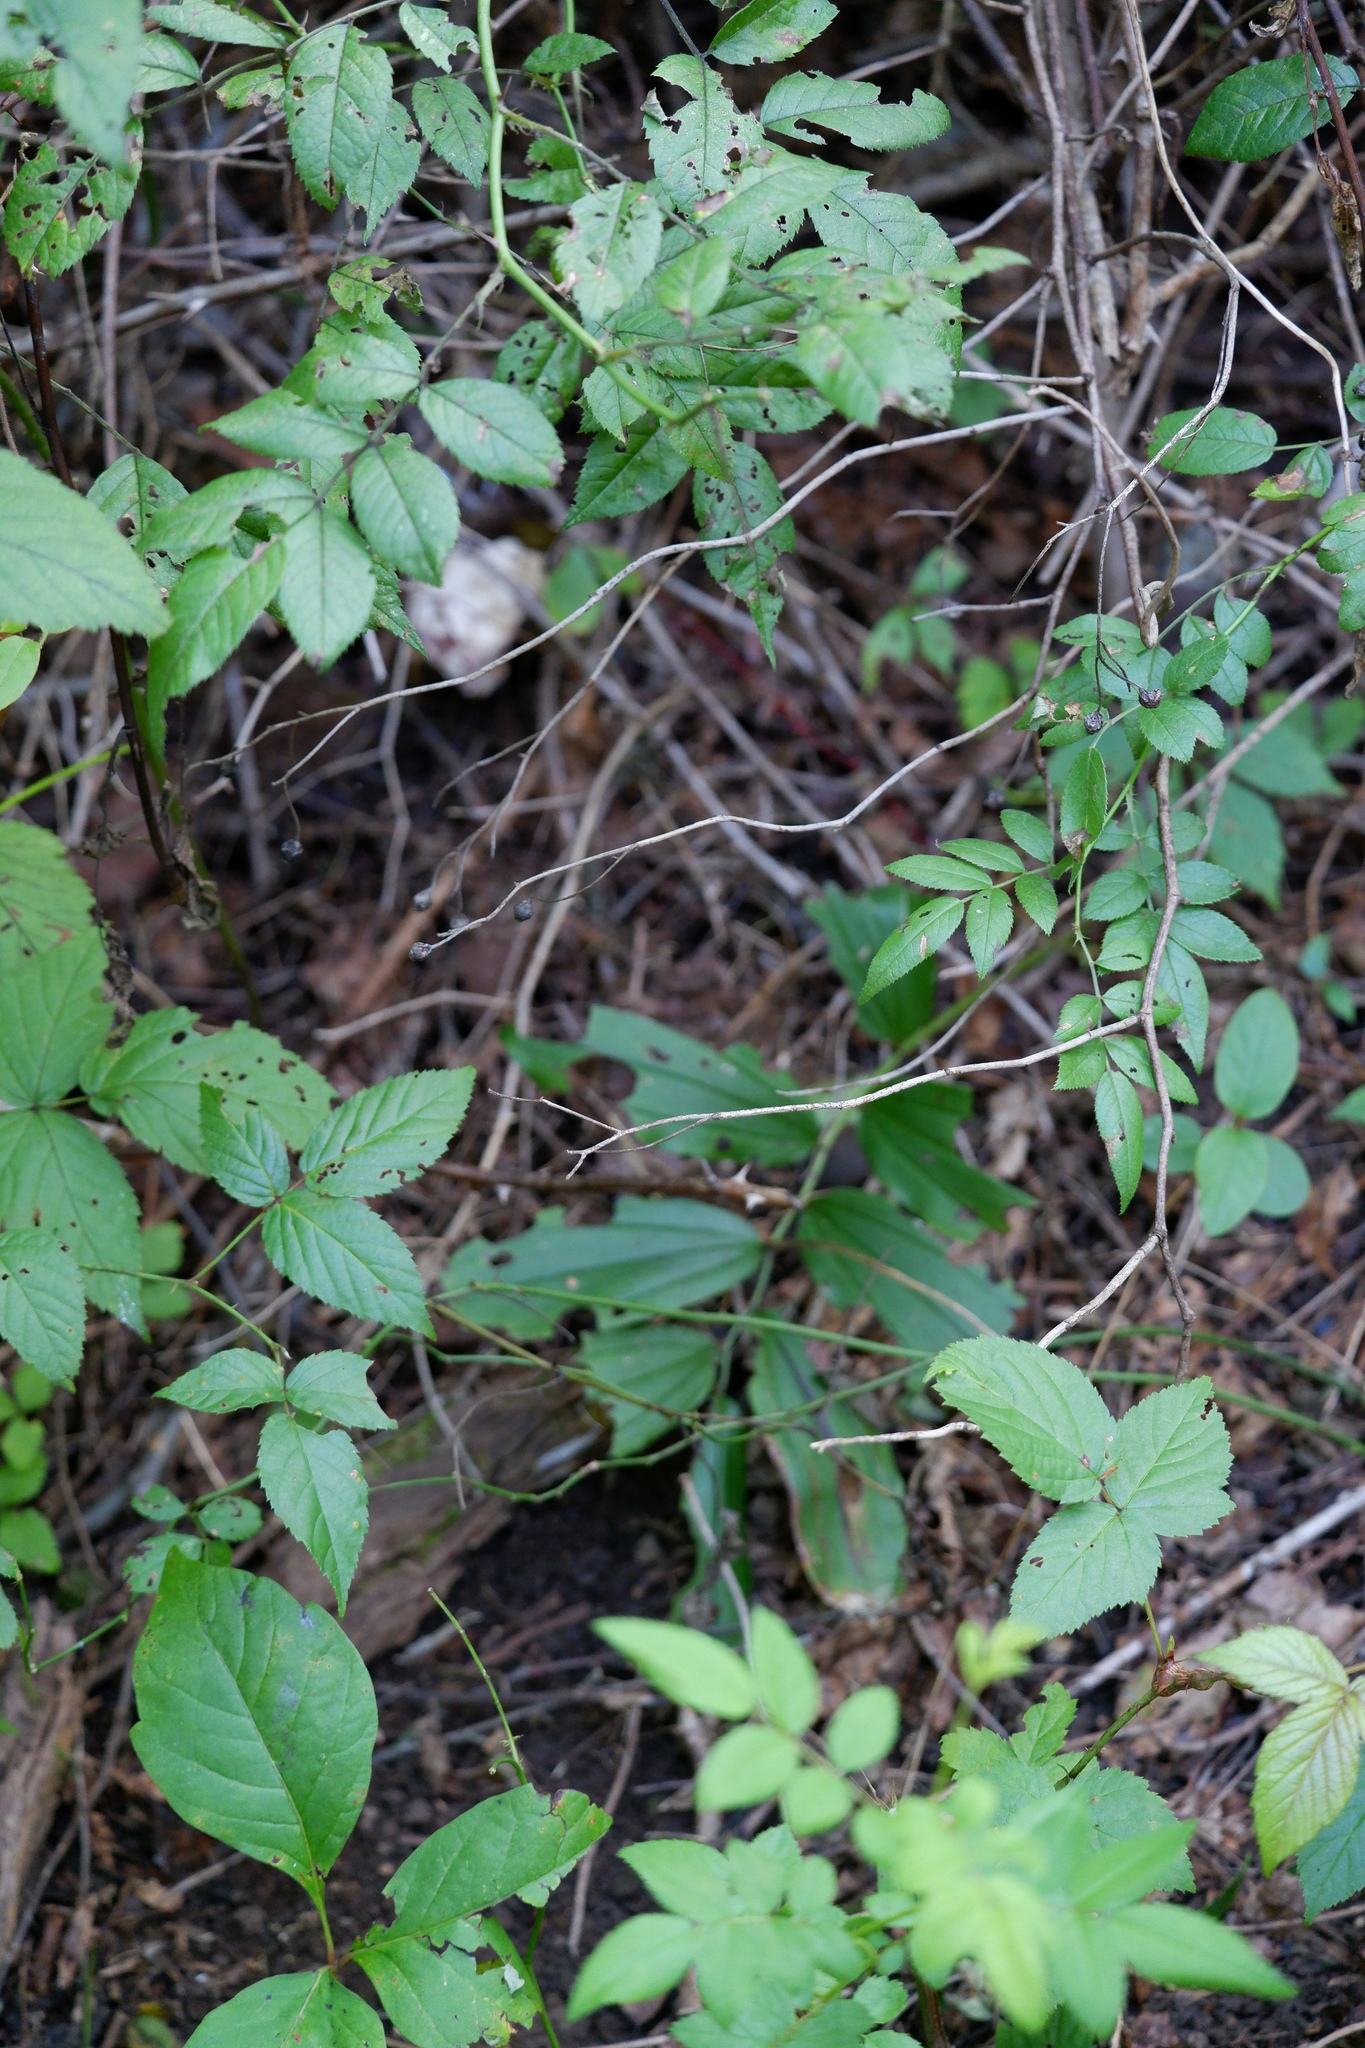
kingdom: Plantae
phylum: Tracheophyta
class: Liliopsida
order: Asparagales
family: Asparagaceae
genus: Maianthemum
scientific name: Maianthemum racemosum
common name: False spikenard
